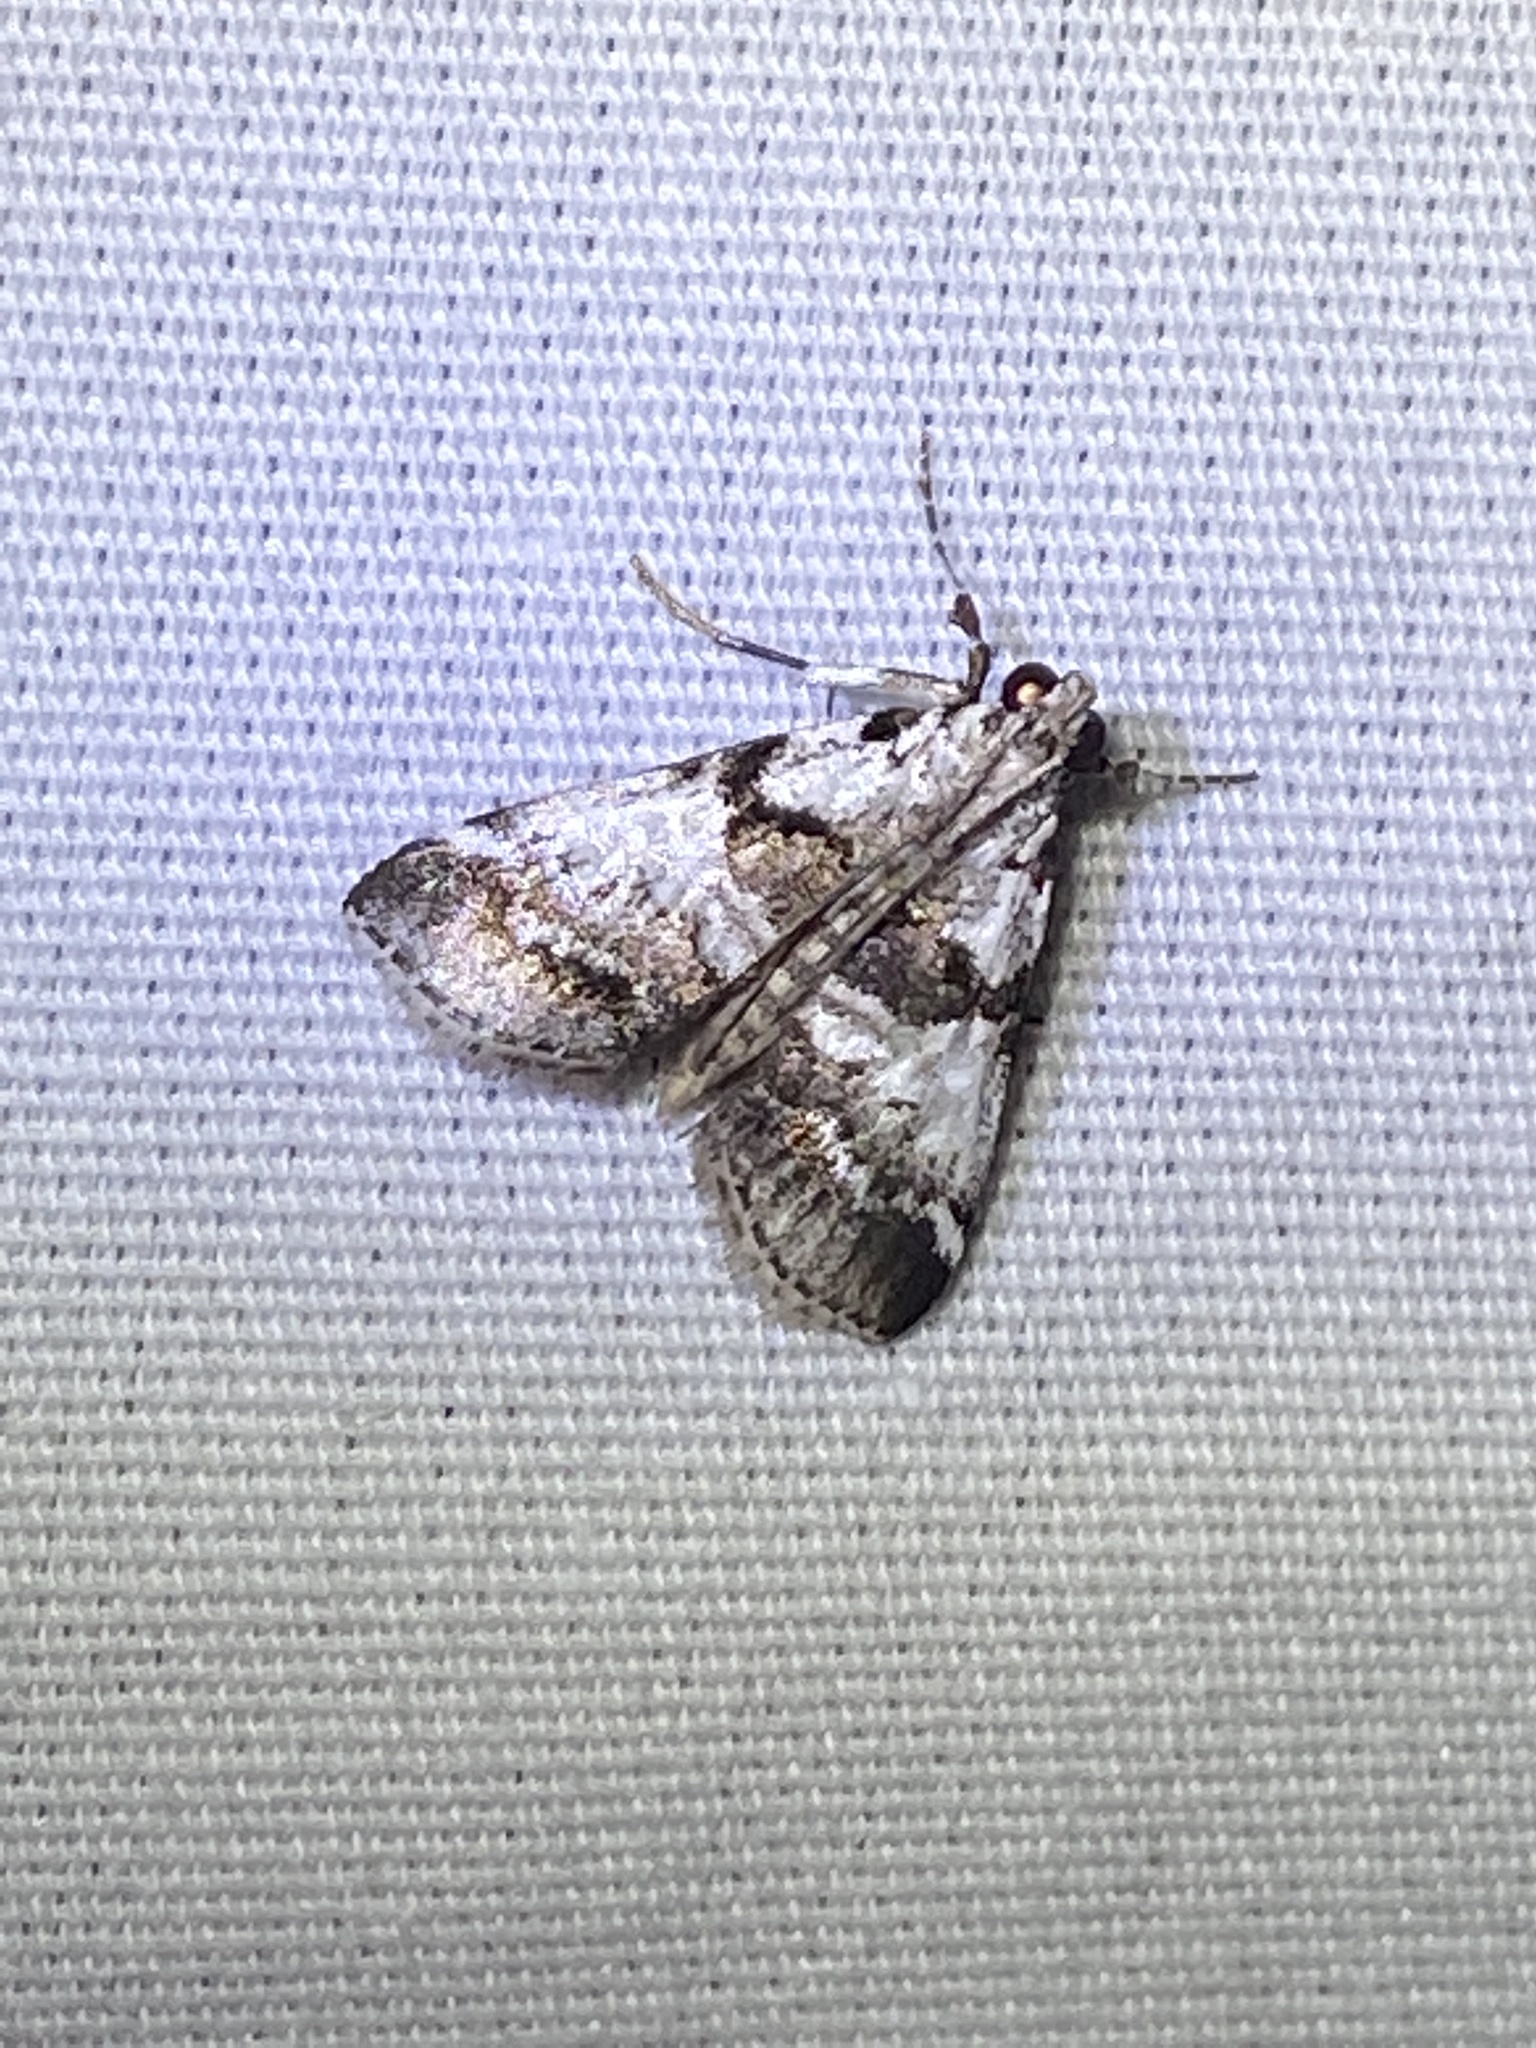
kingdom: Animalia
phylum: Arthropoda
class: Insecta
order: Lepidoptera
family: Pyralidae
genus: Tallula
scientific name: Tallula atrifascialis
